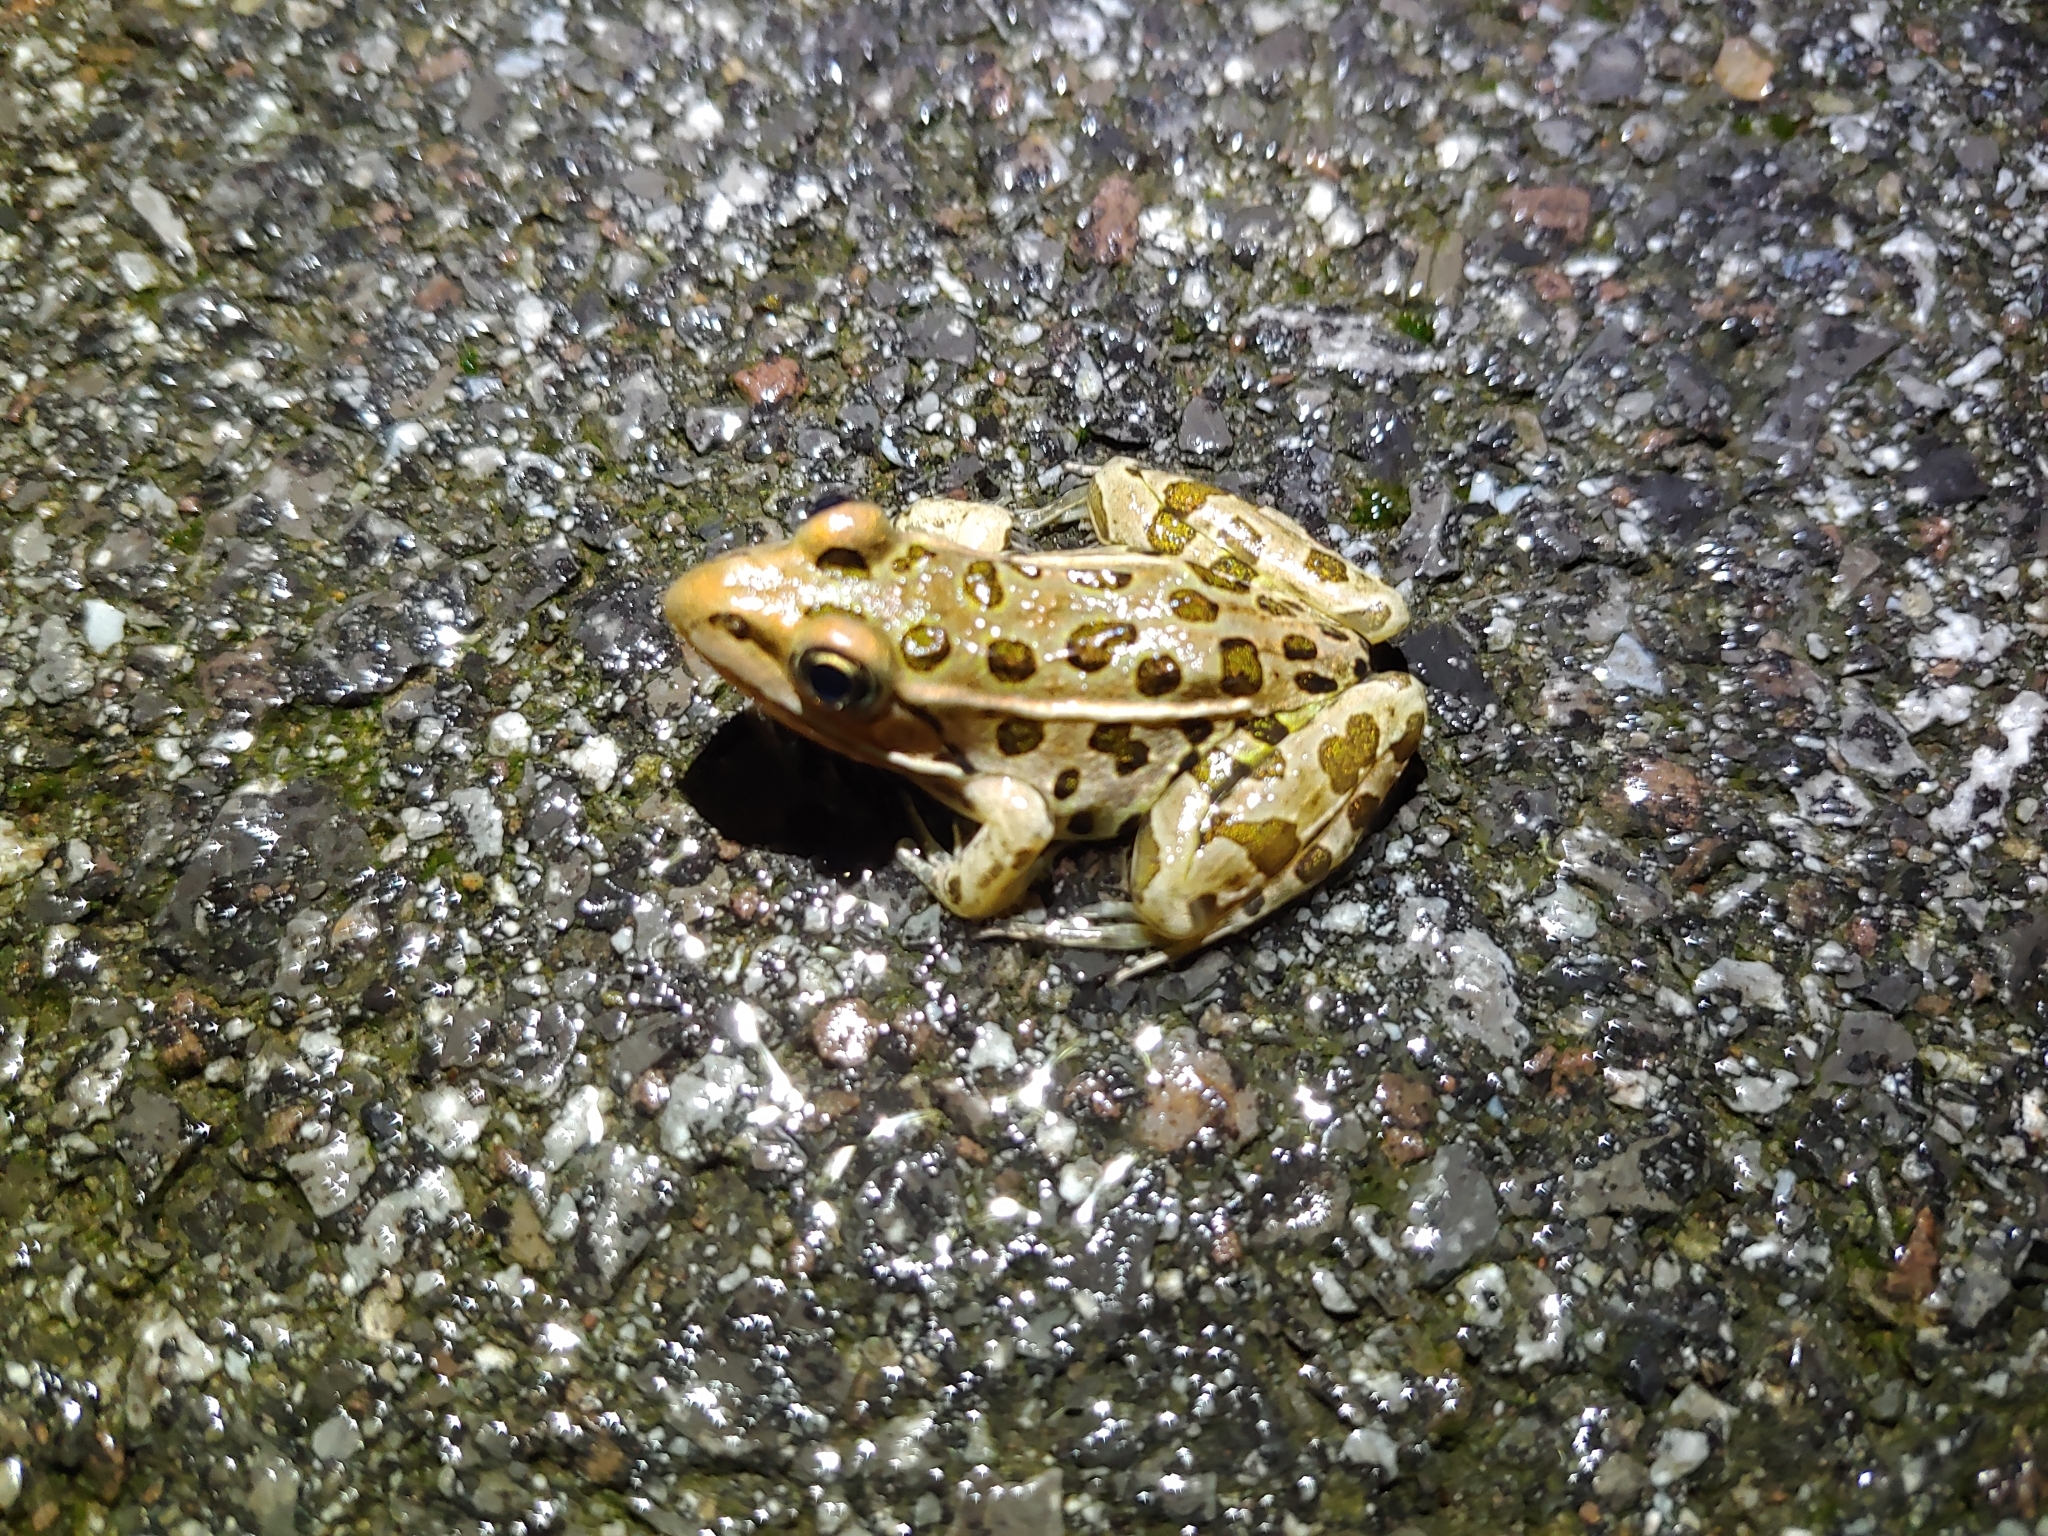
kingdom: Animalia
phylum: Chordata
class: Amphibia
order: Anura
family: Ranidae
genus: Lithobates
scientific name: Lithobates pipiens
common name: Northern leopard frog
